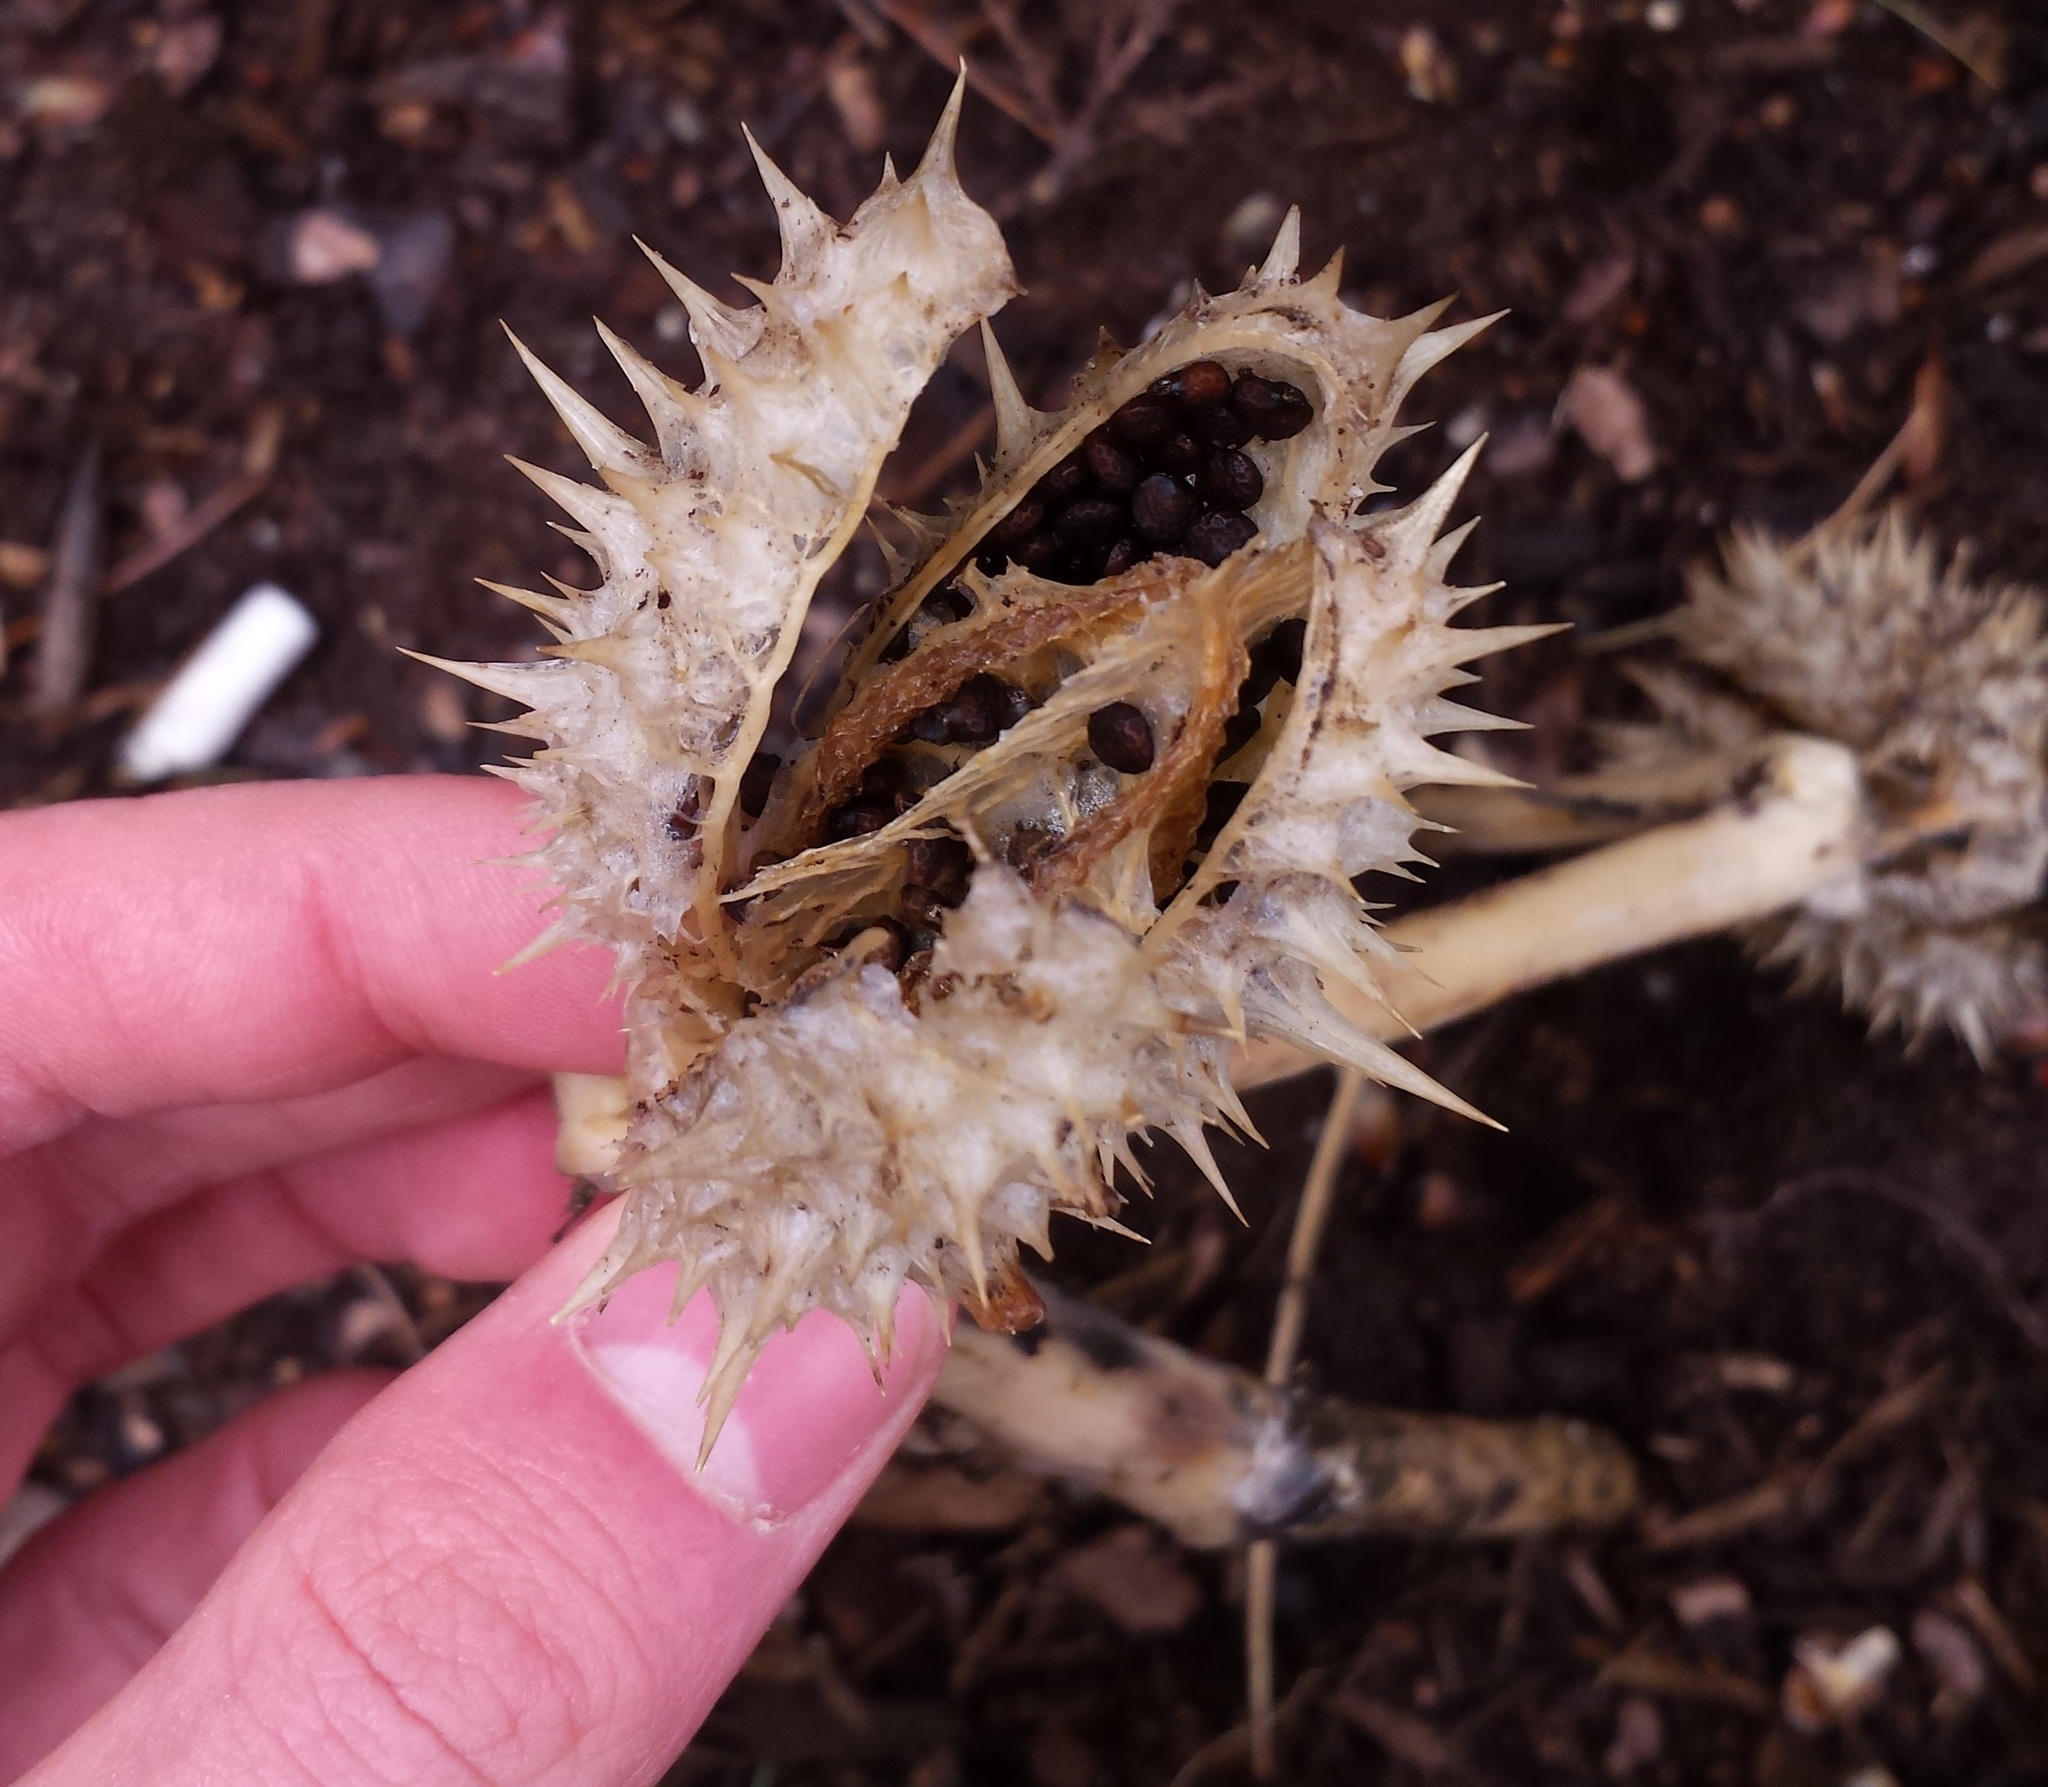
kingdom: Plantae
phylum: Tracheophyta
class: Magnoliopsida
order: Solanales
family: Solanaceae
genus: Datura
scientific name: Datura stramonium
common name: Thorn-apple
